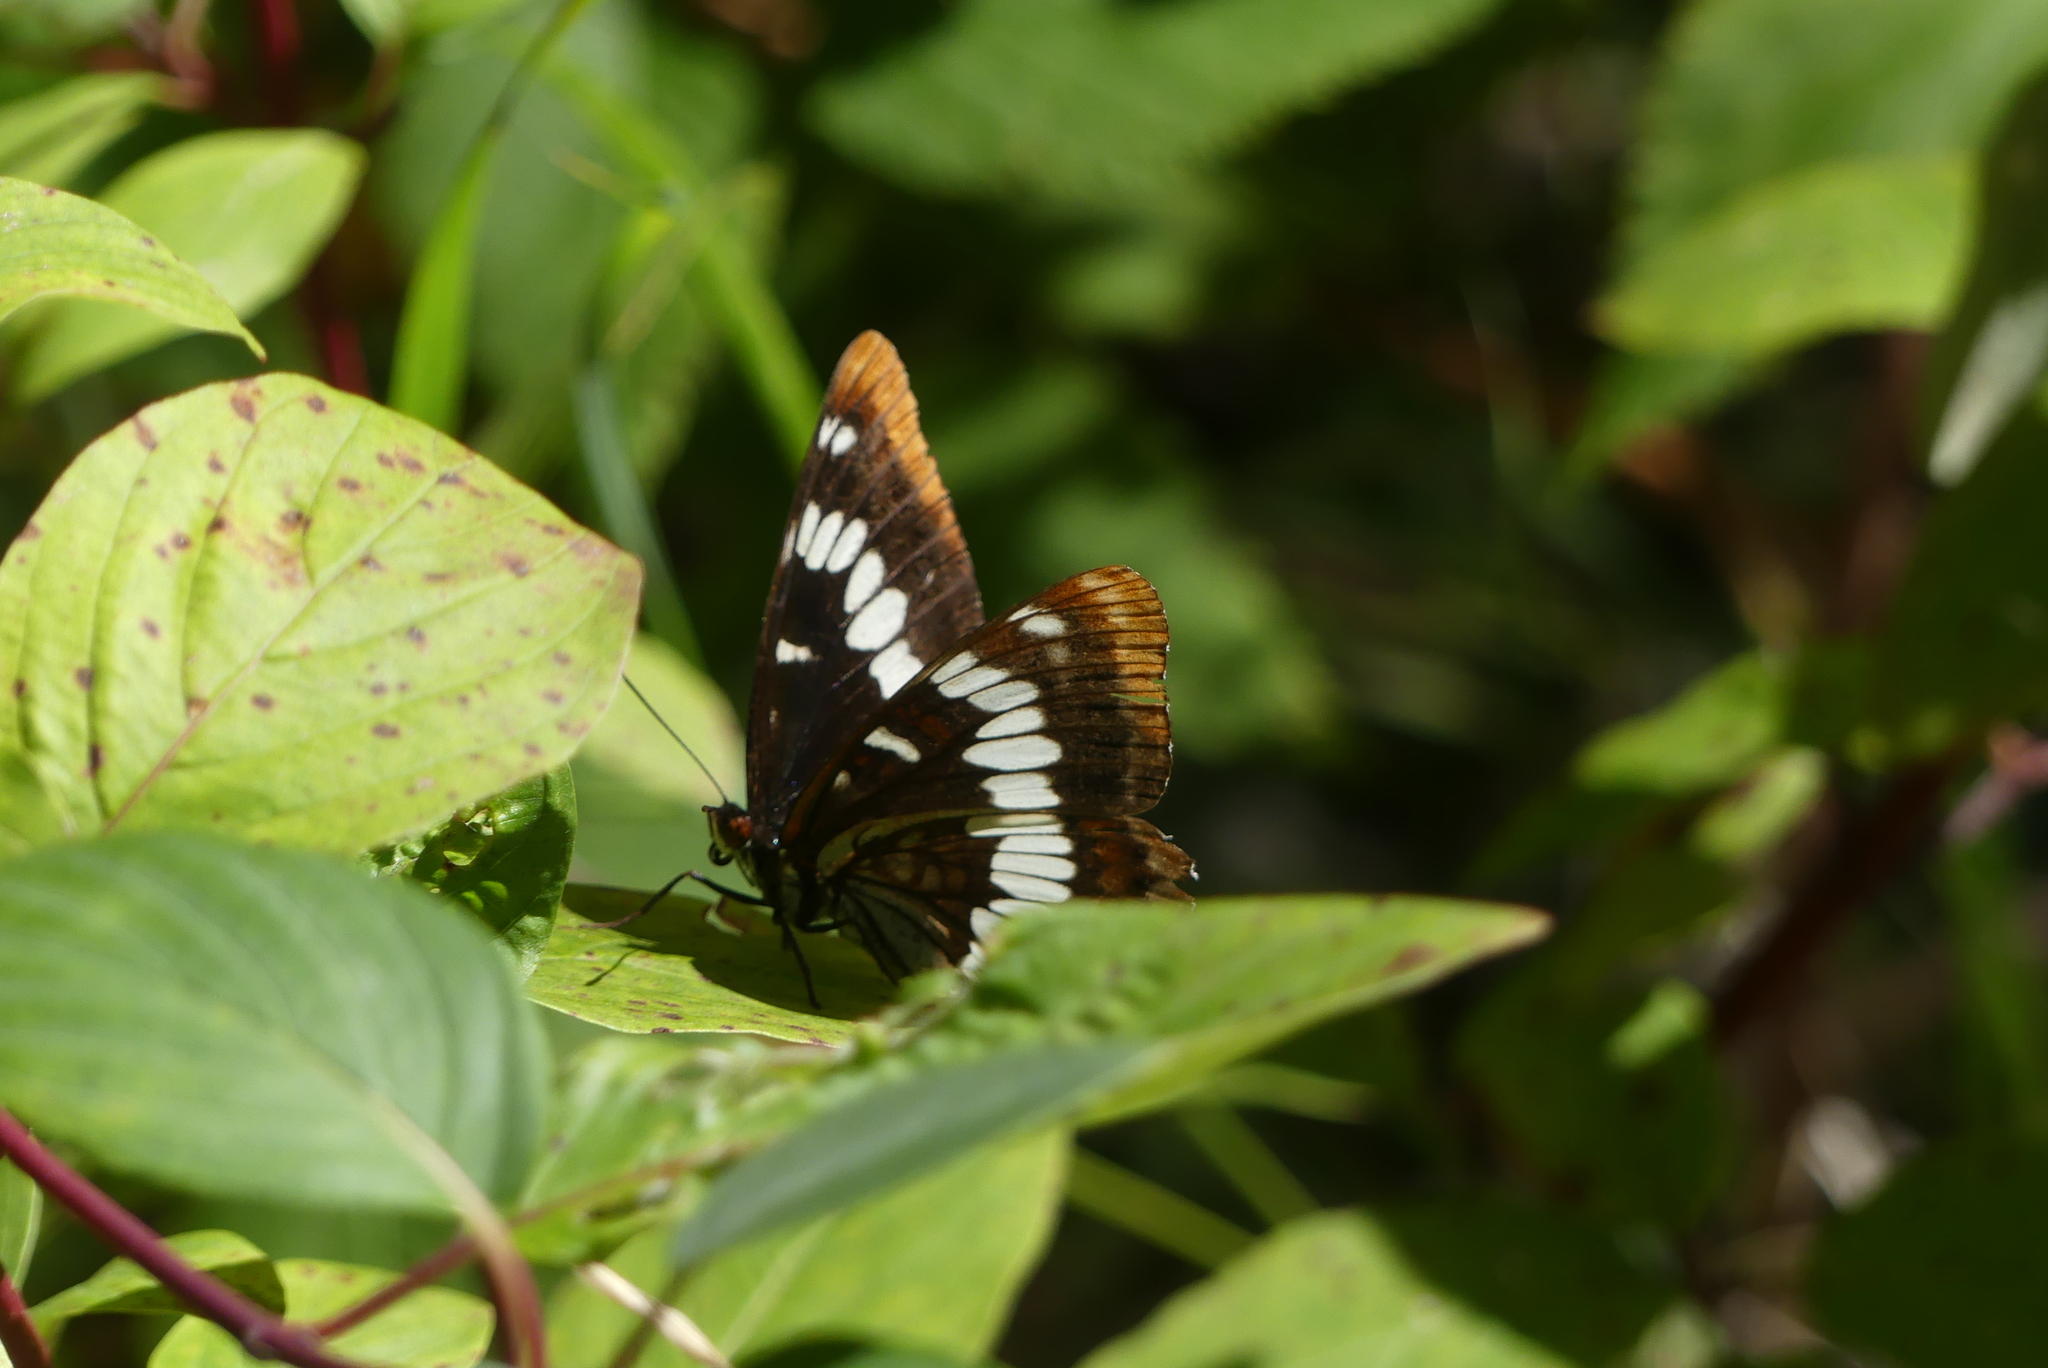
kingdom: Animalia
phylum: Arthropoda
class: Insecta
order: Lepidoptera
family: Nymphalidae
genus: Limenitis
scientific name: Limenitis lorquini
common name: Lorquin's admiral
